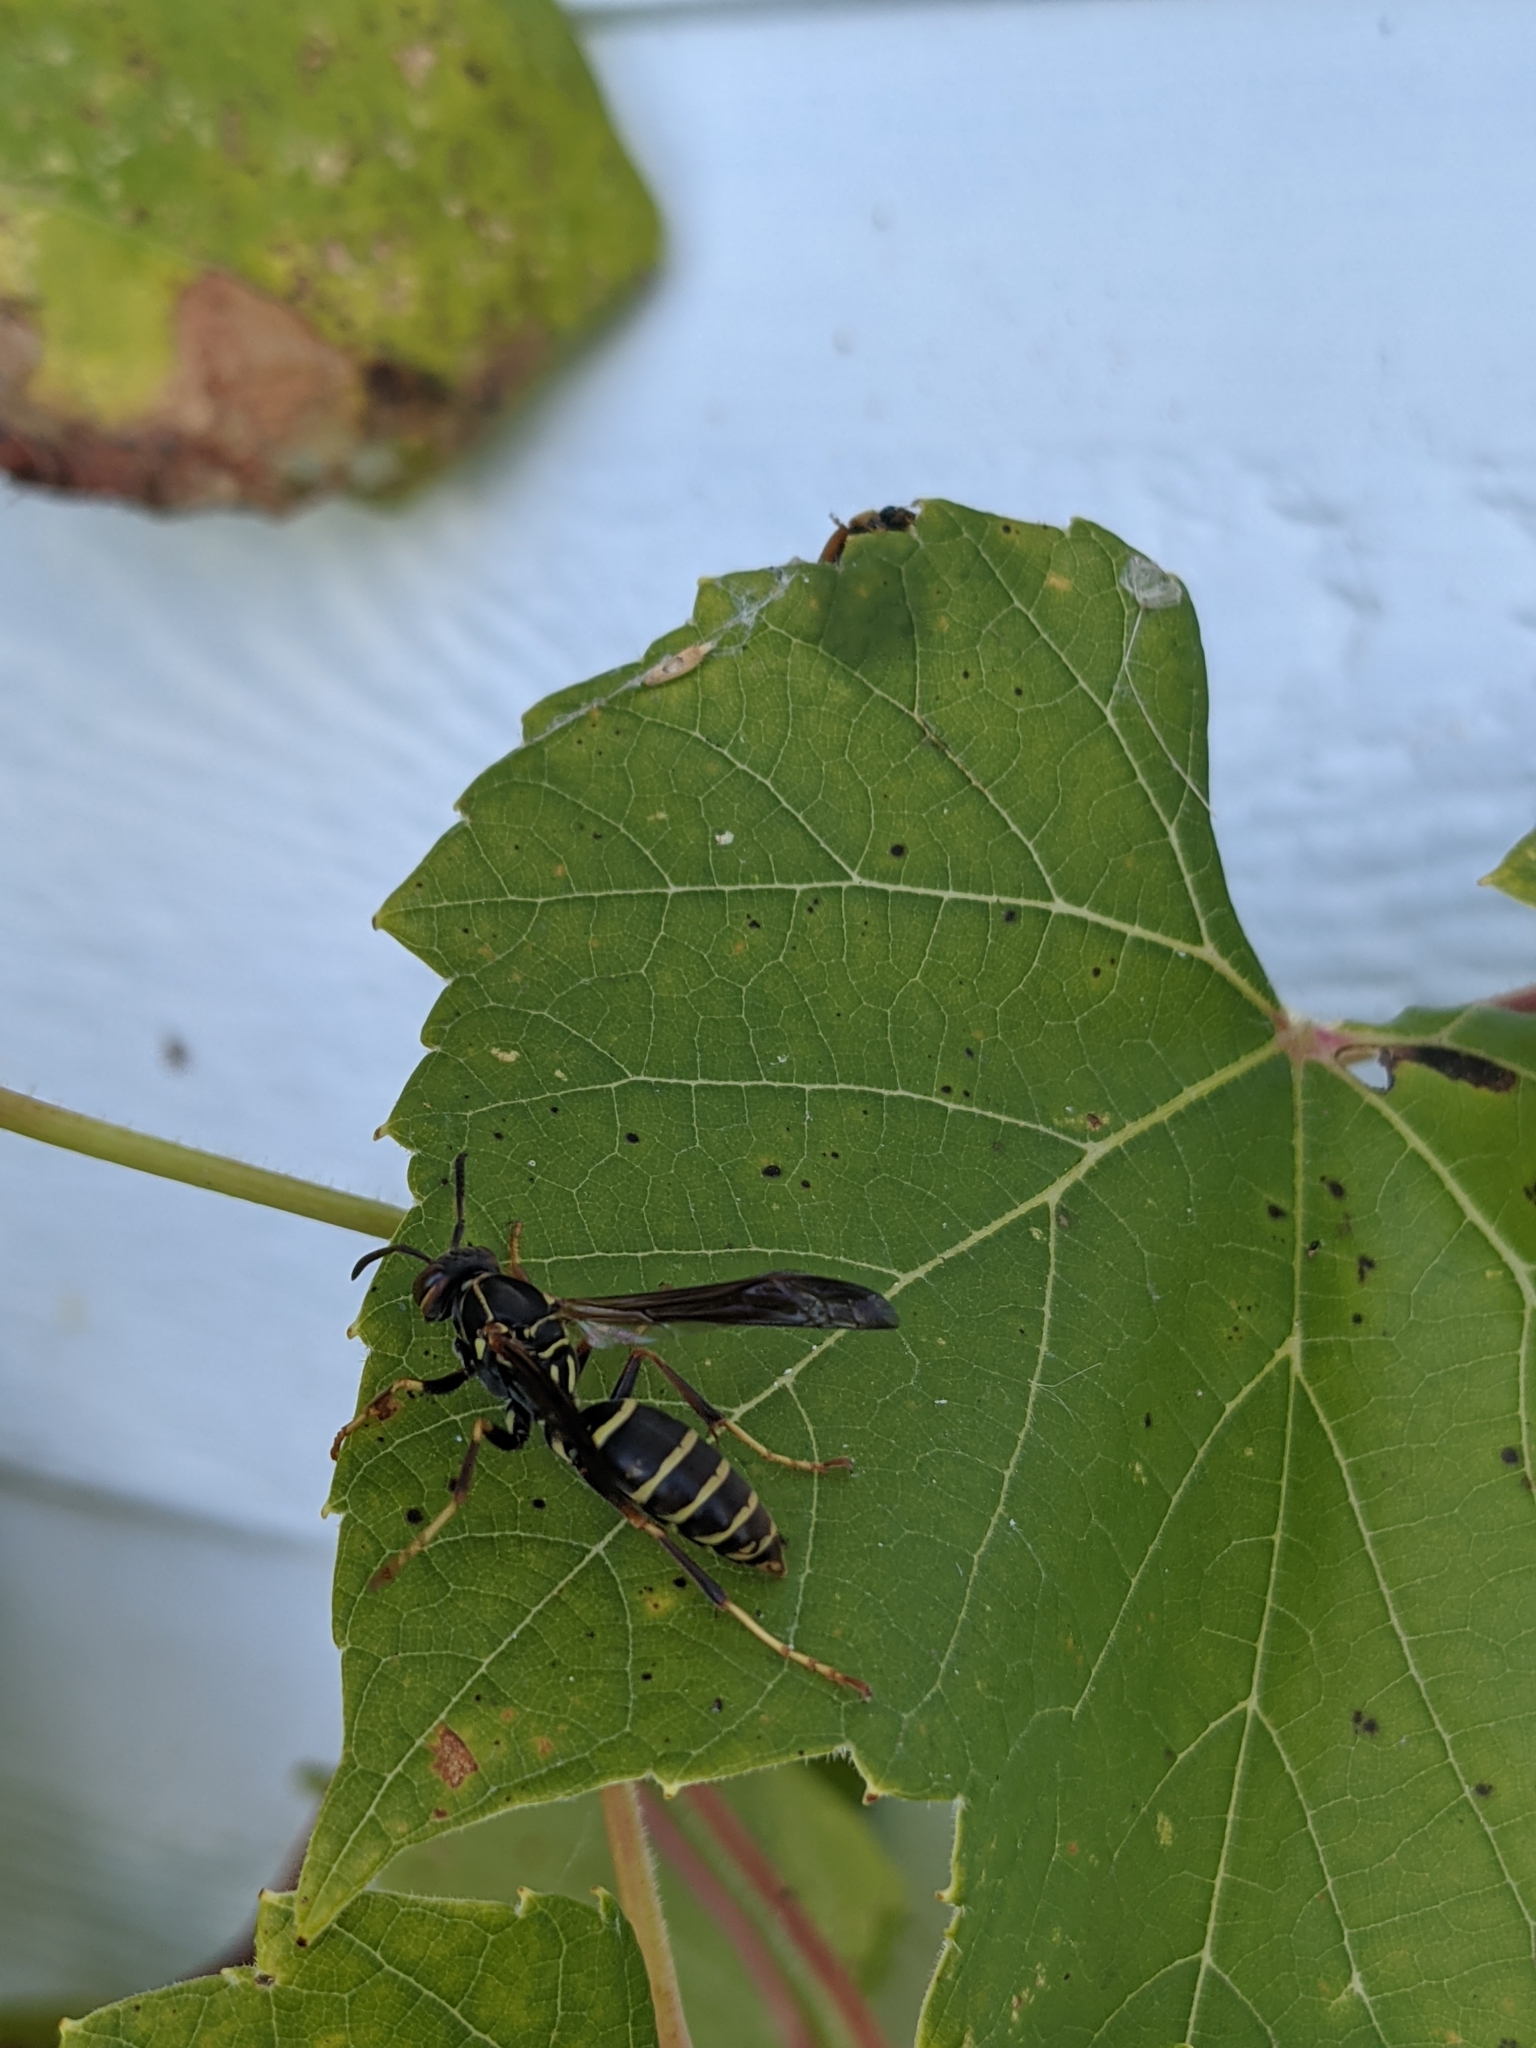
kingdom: Animalia
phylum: Arthropoda
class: Insecta
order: Hymenoptera
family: Eumenidae
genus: Polistes
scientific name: Polistes fuscatus
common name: Dark paper wasp
